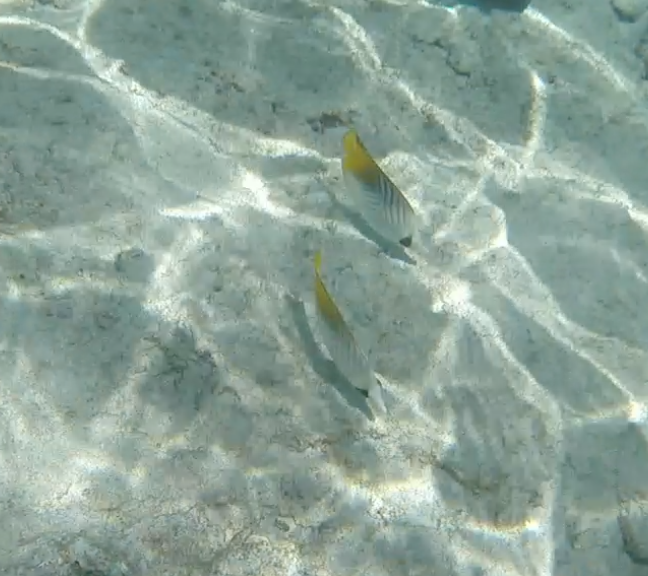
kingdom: Animalia
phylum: Chordata
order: Perciformes
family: Chaetodontidae
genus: Chaetodon
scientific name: Chaetodon auriga
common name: Threadfin butterflyfish
